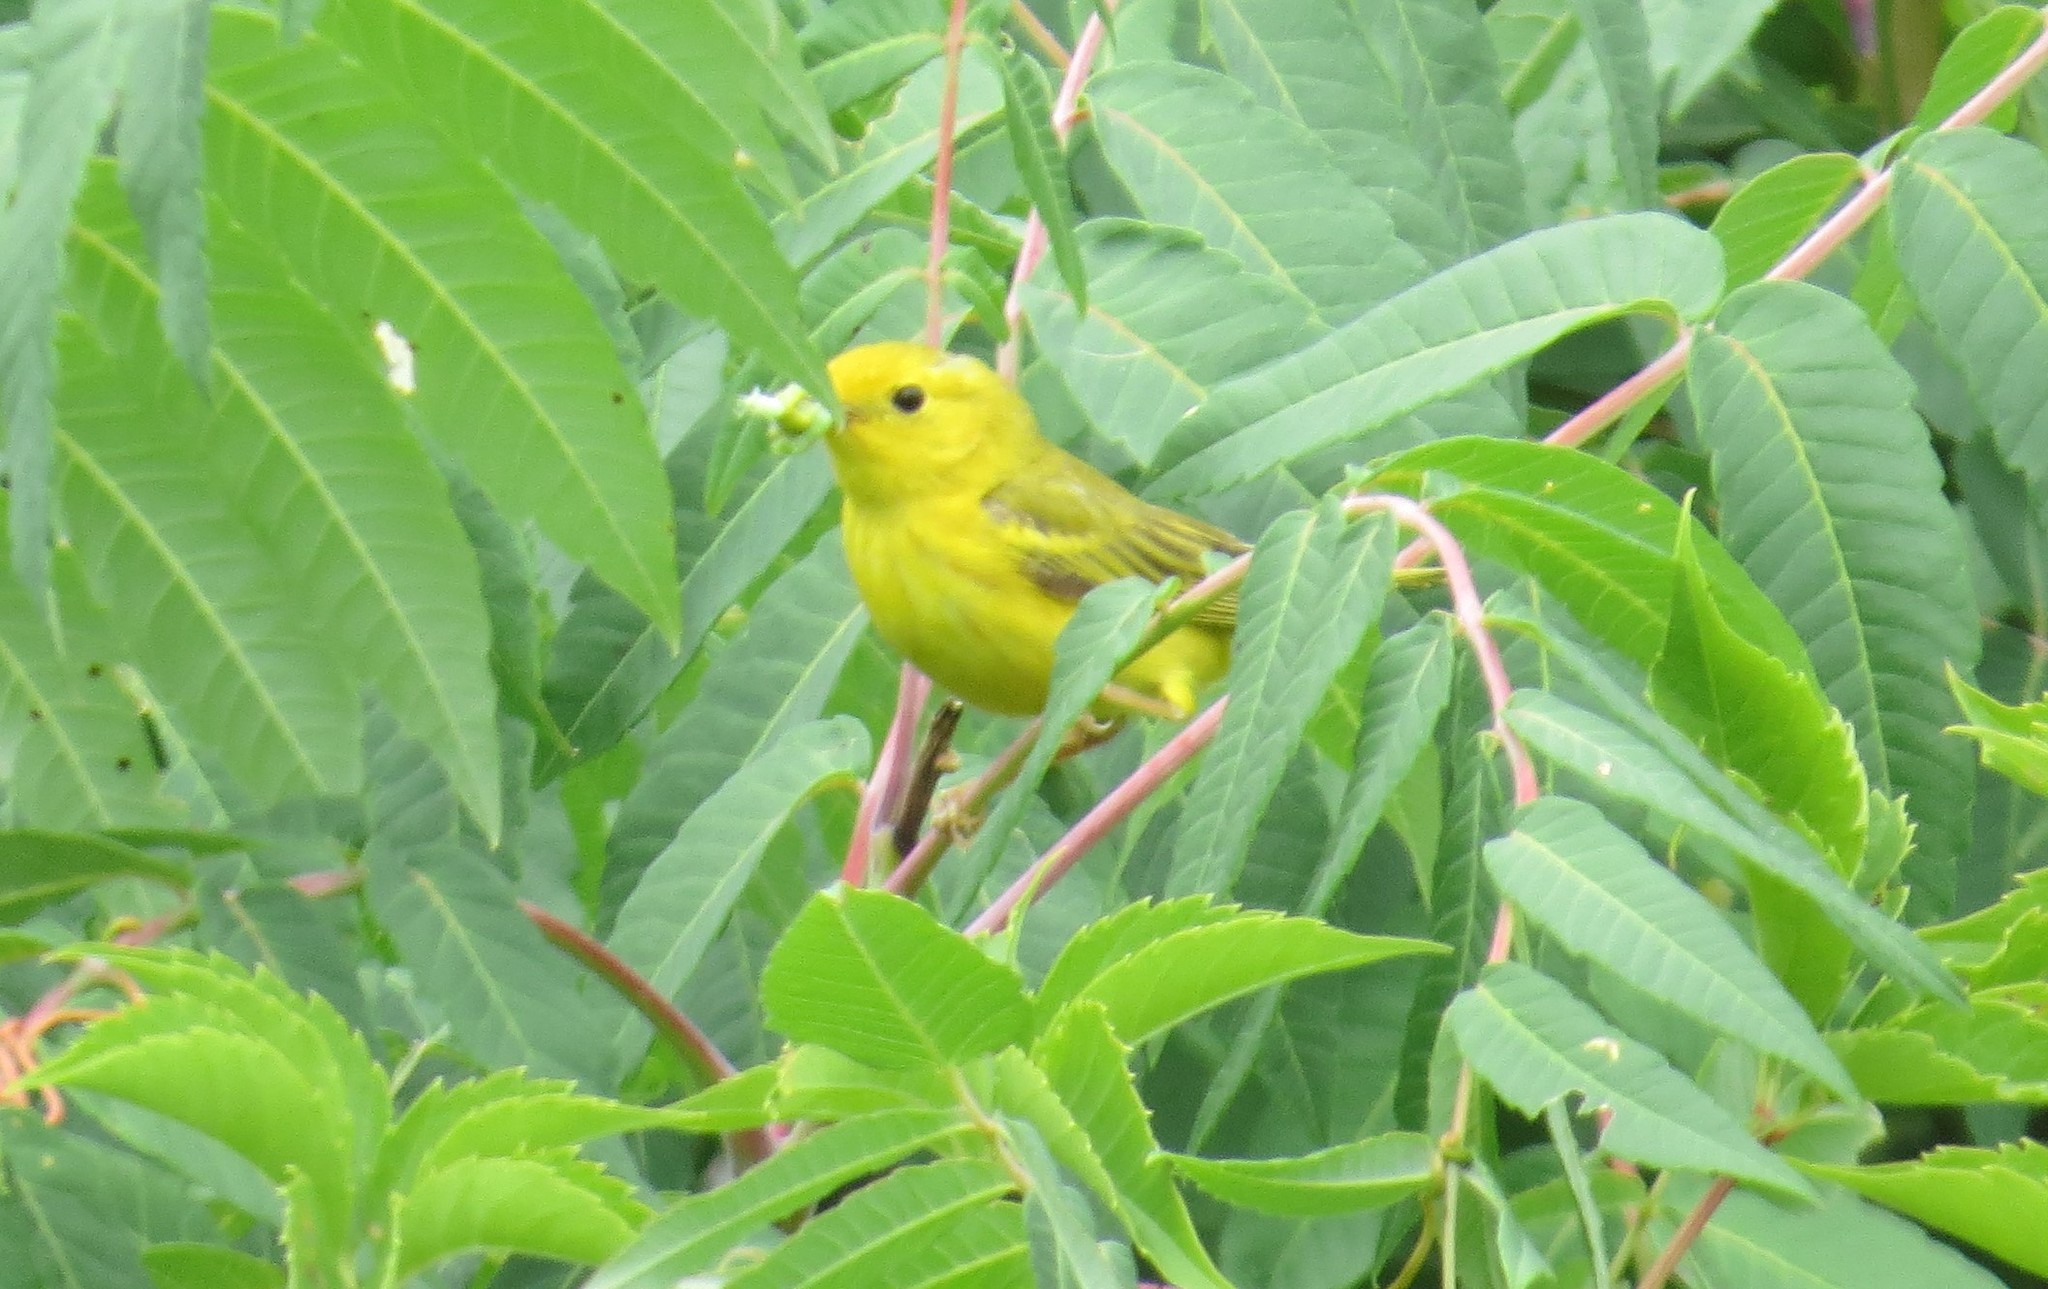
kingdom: Animalia
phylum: Chordata
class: Aves
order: Passeriformes
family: Parulidae
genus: Setophaga
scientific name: Setophaga petechia
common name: Yellow warbler
